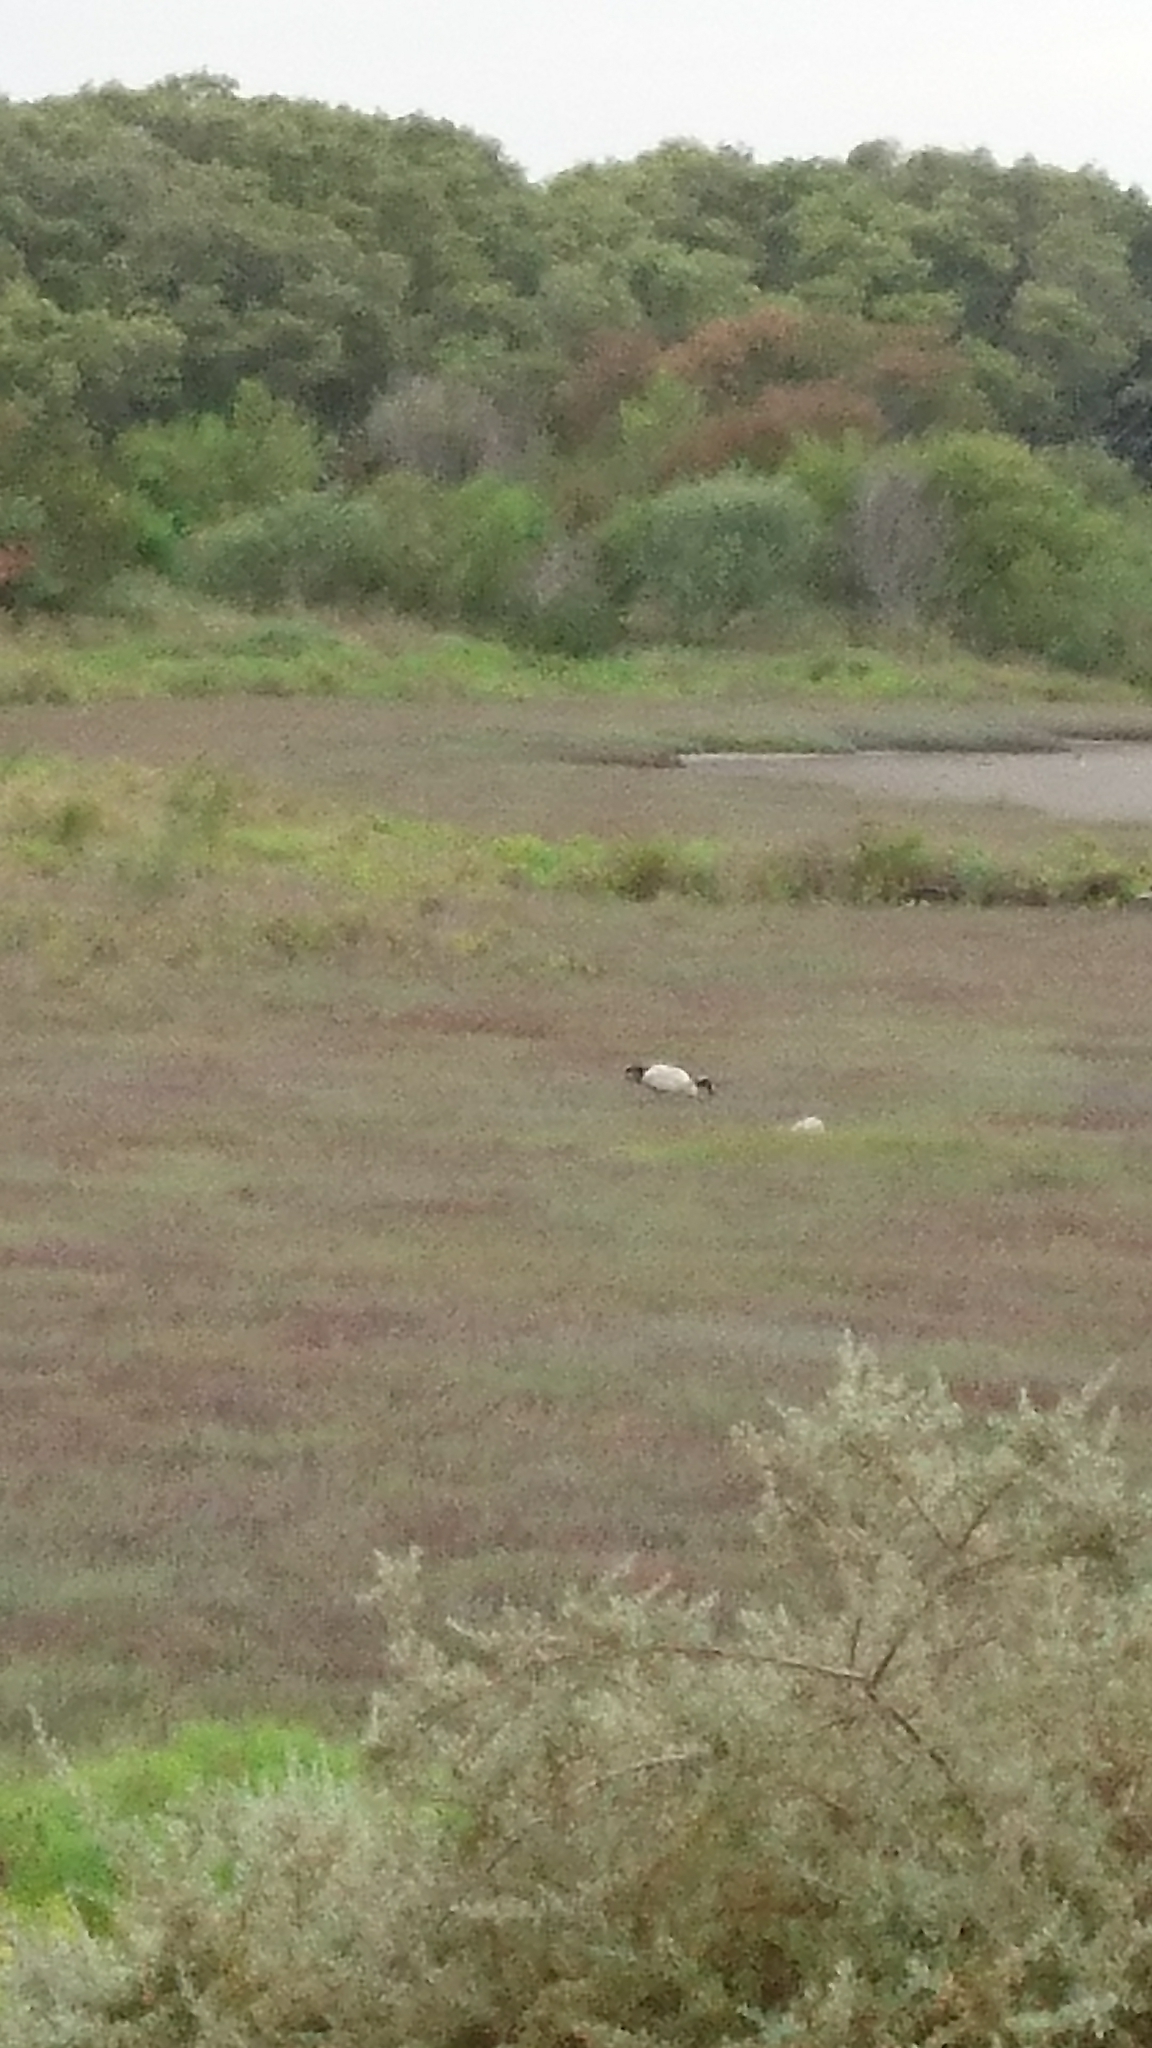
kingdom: Animalia
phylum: Chordata
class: Aves
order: Pelecaniformes
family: Threskiornithidae
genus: Threskiornis
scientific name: Threskiornis molucca
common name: Australian white ibis
